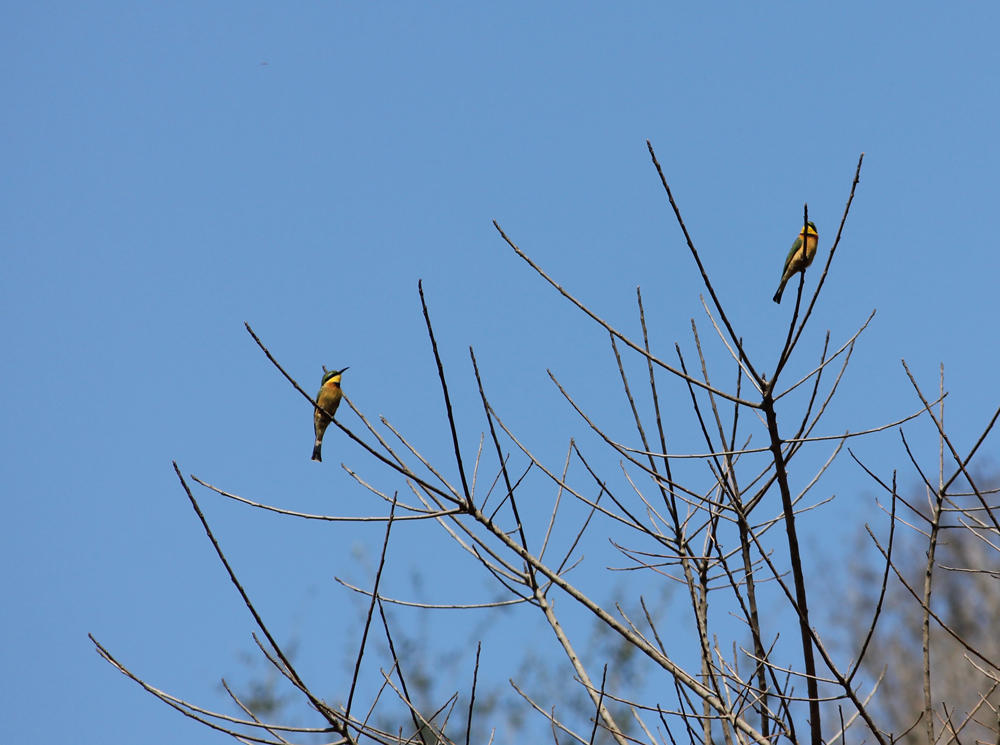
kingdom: Animalia
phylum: Chordata
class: Aves
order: Coraciiformes
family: Meropidae
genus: Merops
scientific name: Merops pusillus
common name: Little bee-eater
